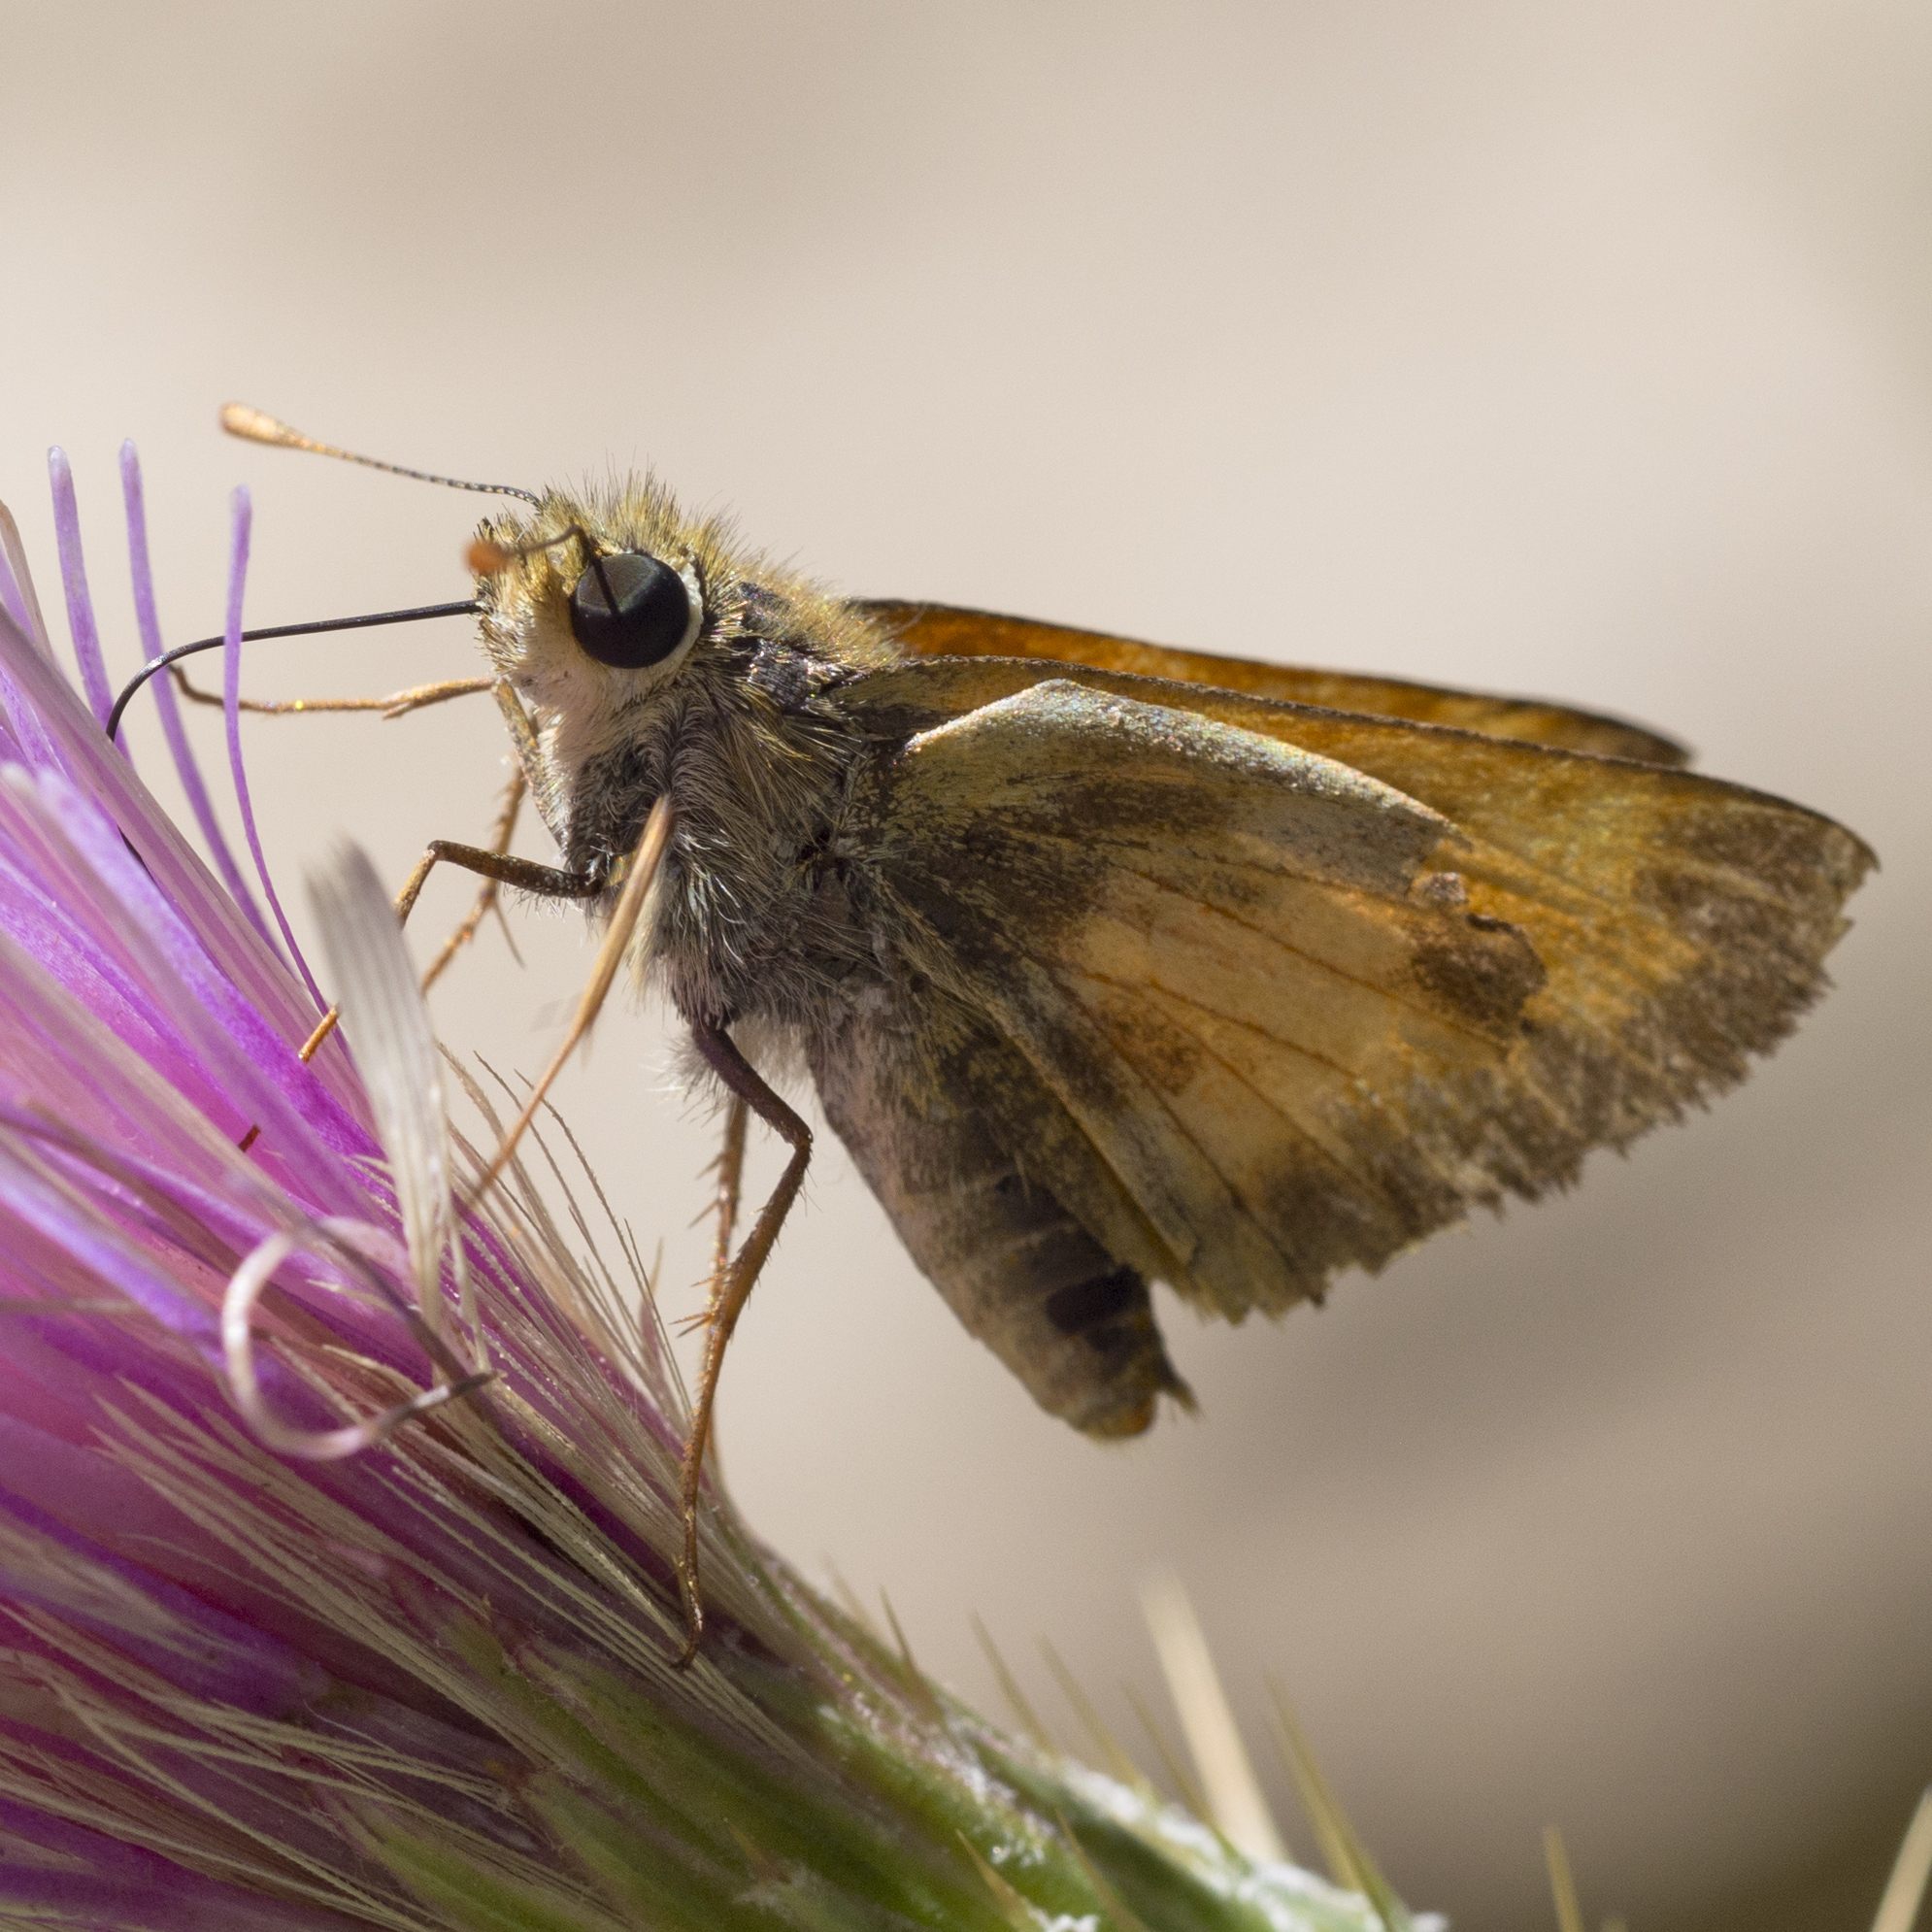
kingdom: Animalia
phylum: Arthropoda
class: Insecta
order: Lepidoptera
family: Hesperiidae
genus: Lon
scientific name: Lon taxiles
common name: Taxiles skipper
